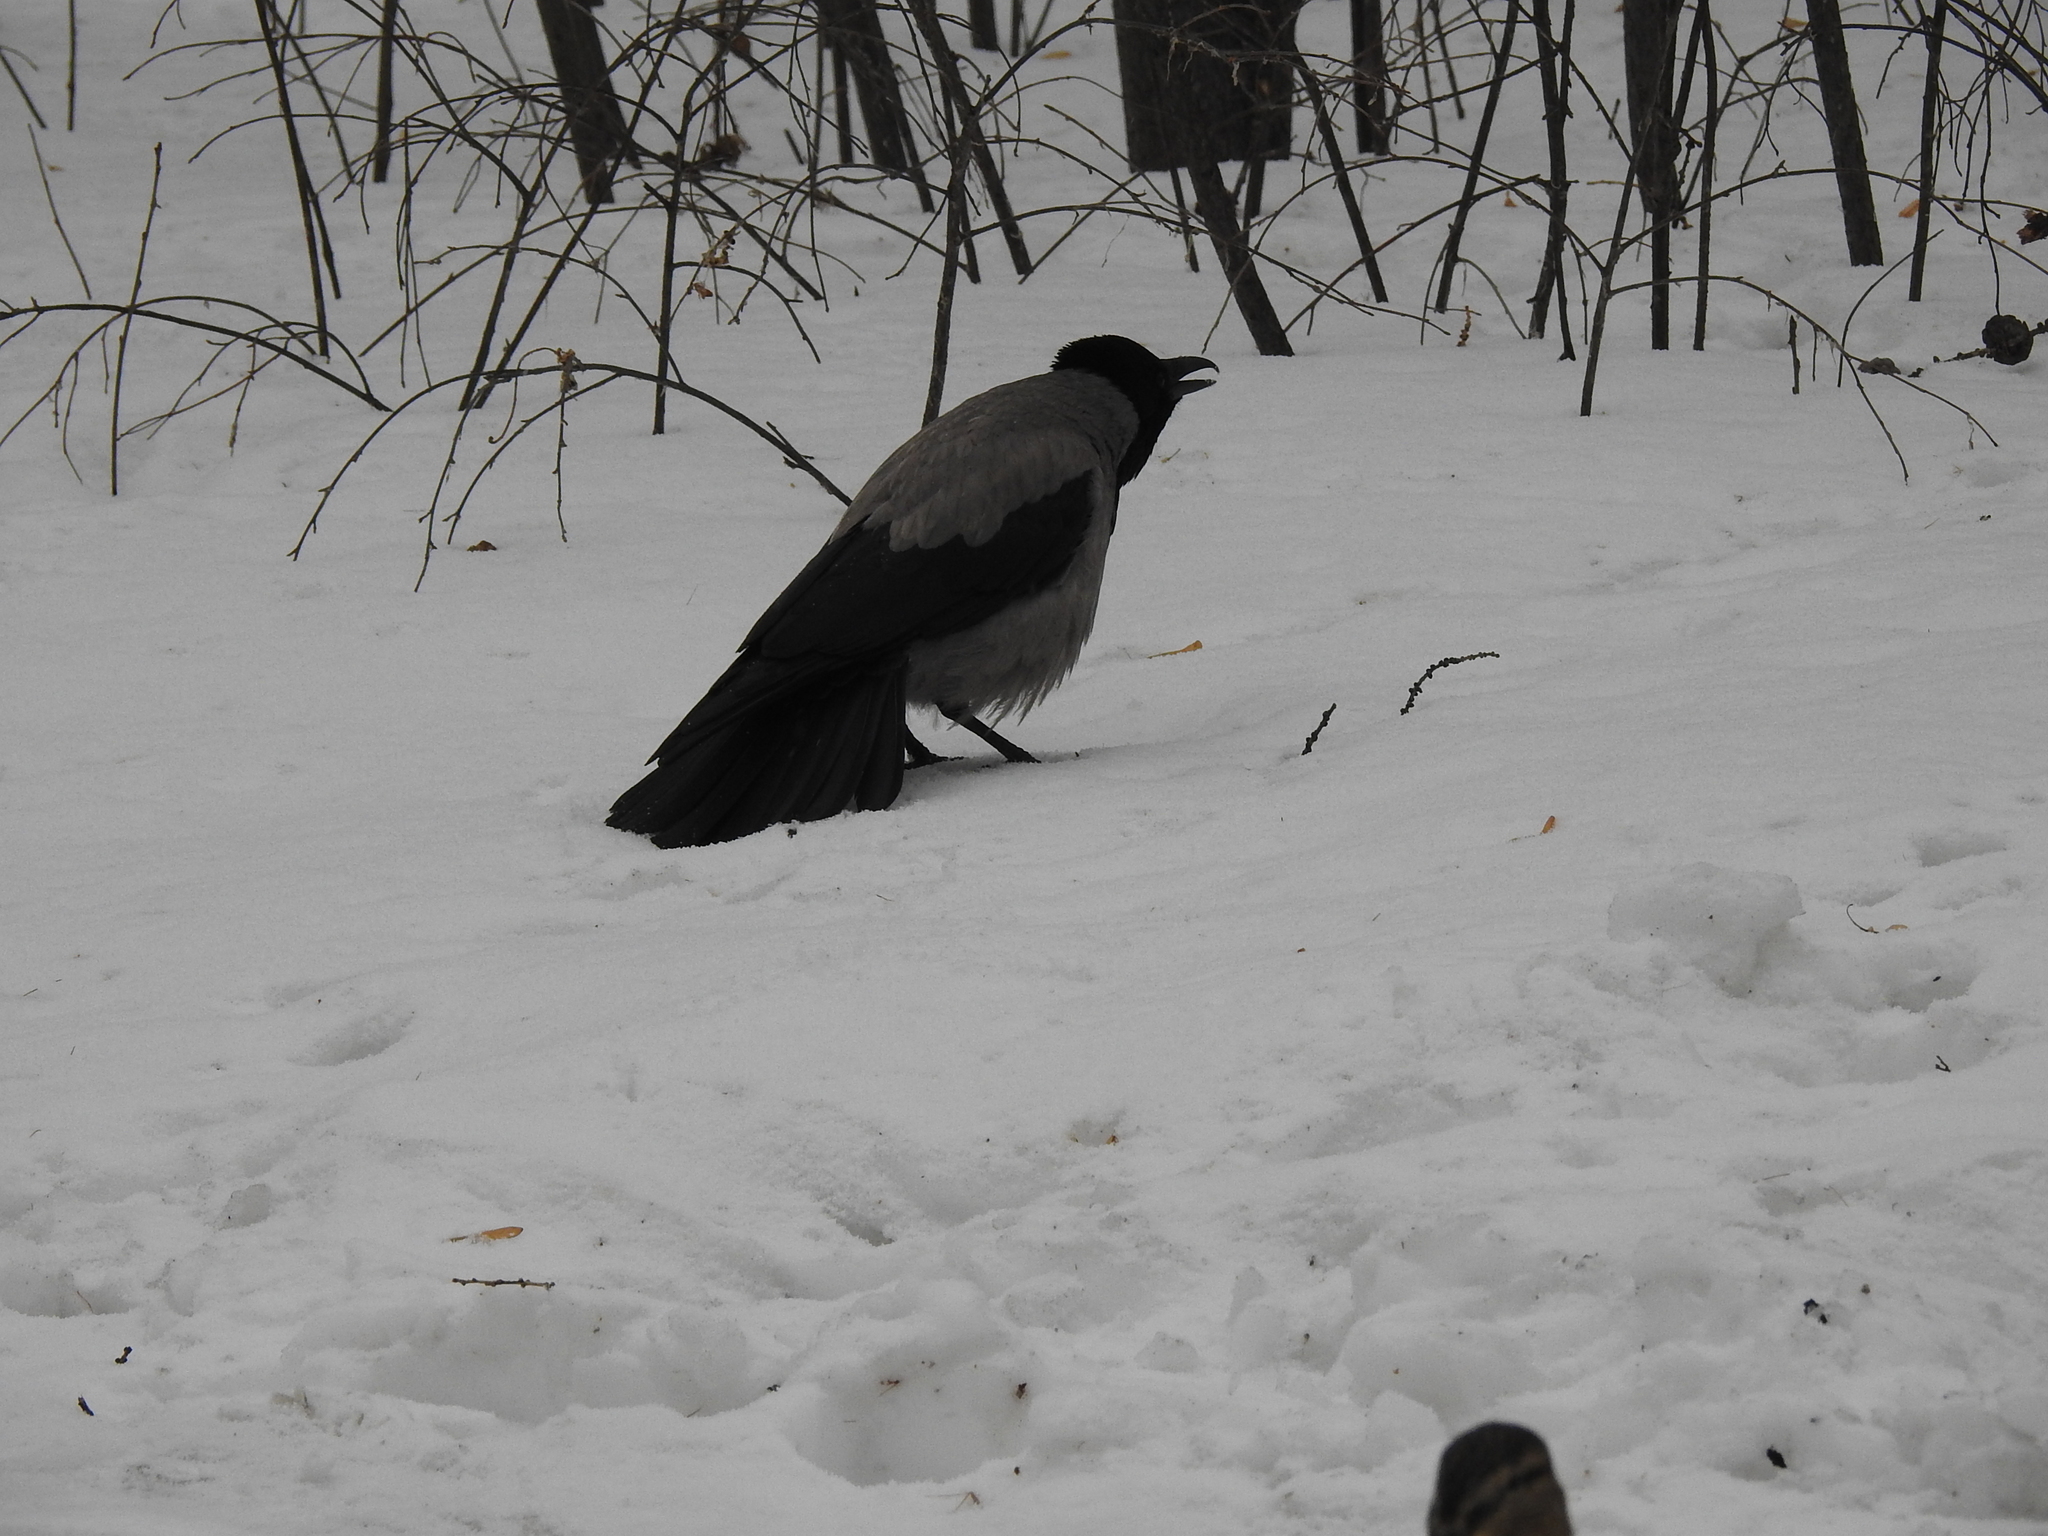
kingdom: Animalia
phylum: Chordata
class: Aves
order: Passeriformes
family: Corvidae
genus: Corvus
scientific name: Corvus cornix
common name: Hooded crow
